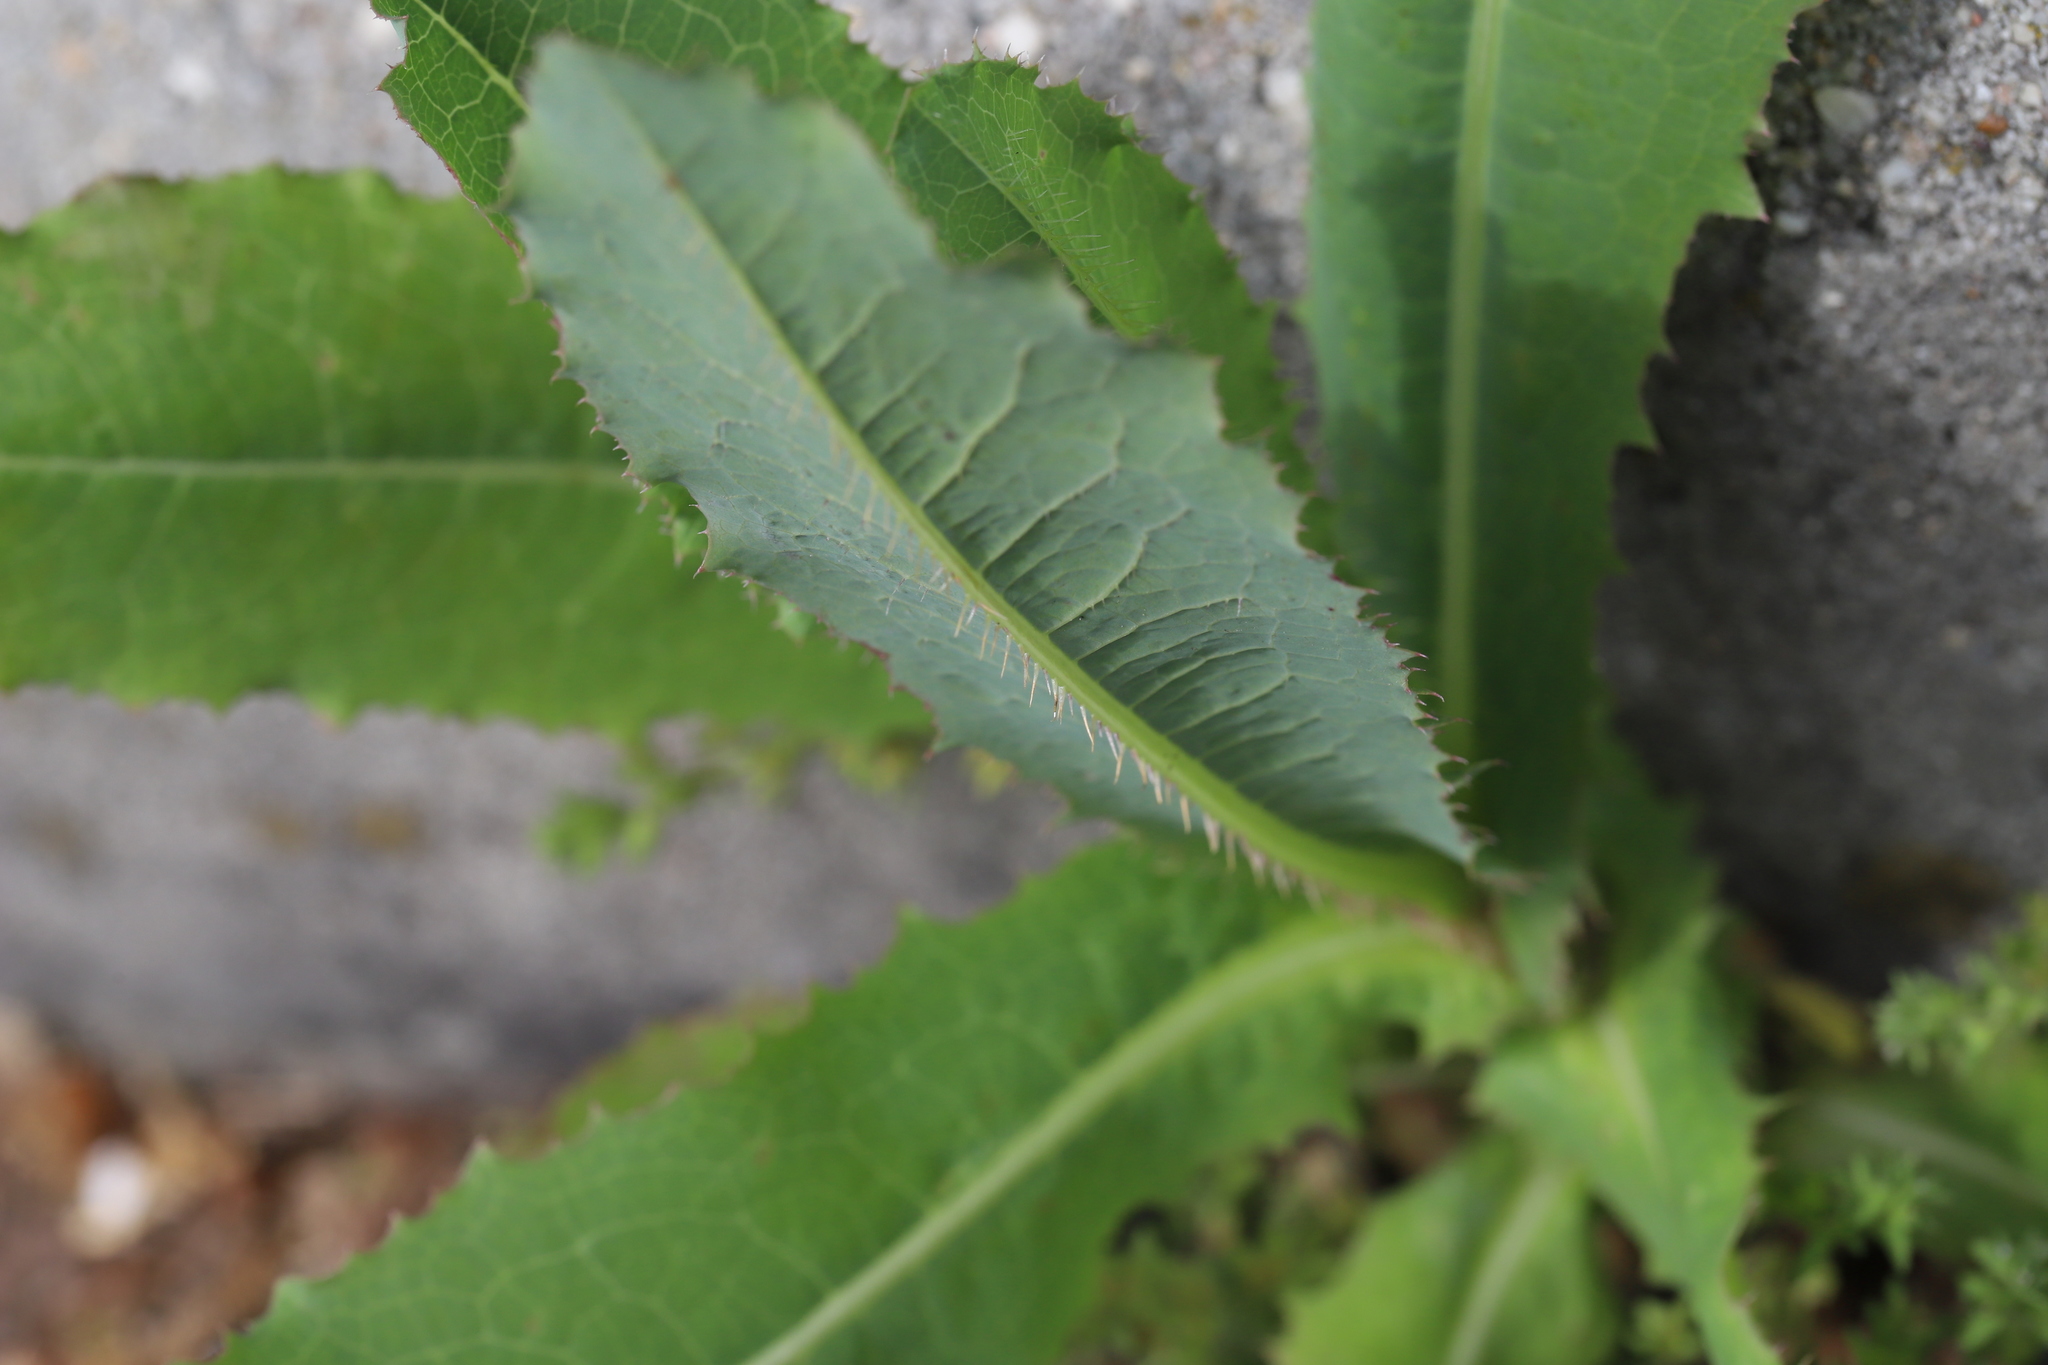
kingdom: Plantae
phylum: Tracheophyta
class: Magnoliopsida
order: Asterales
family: Asteraceae
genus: Lactuca
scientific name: Lactuca serriola
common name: Prickly lettuce
